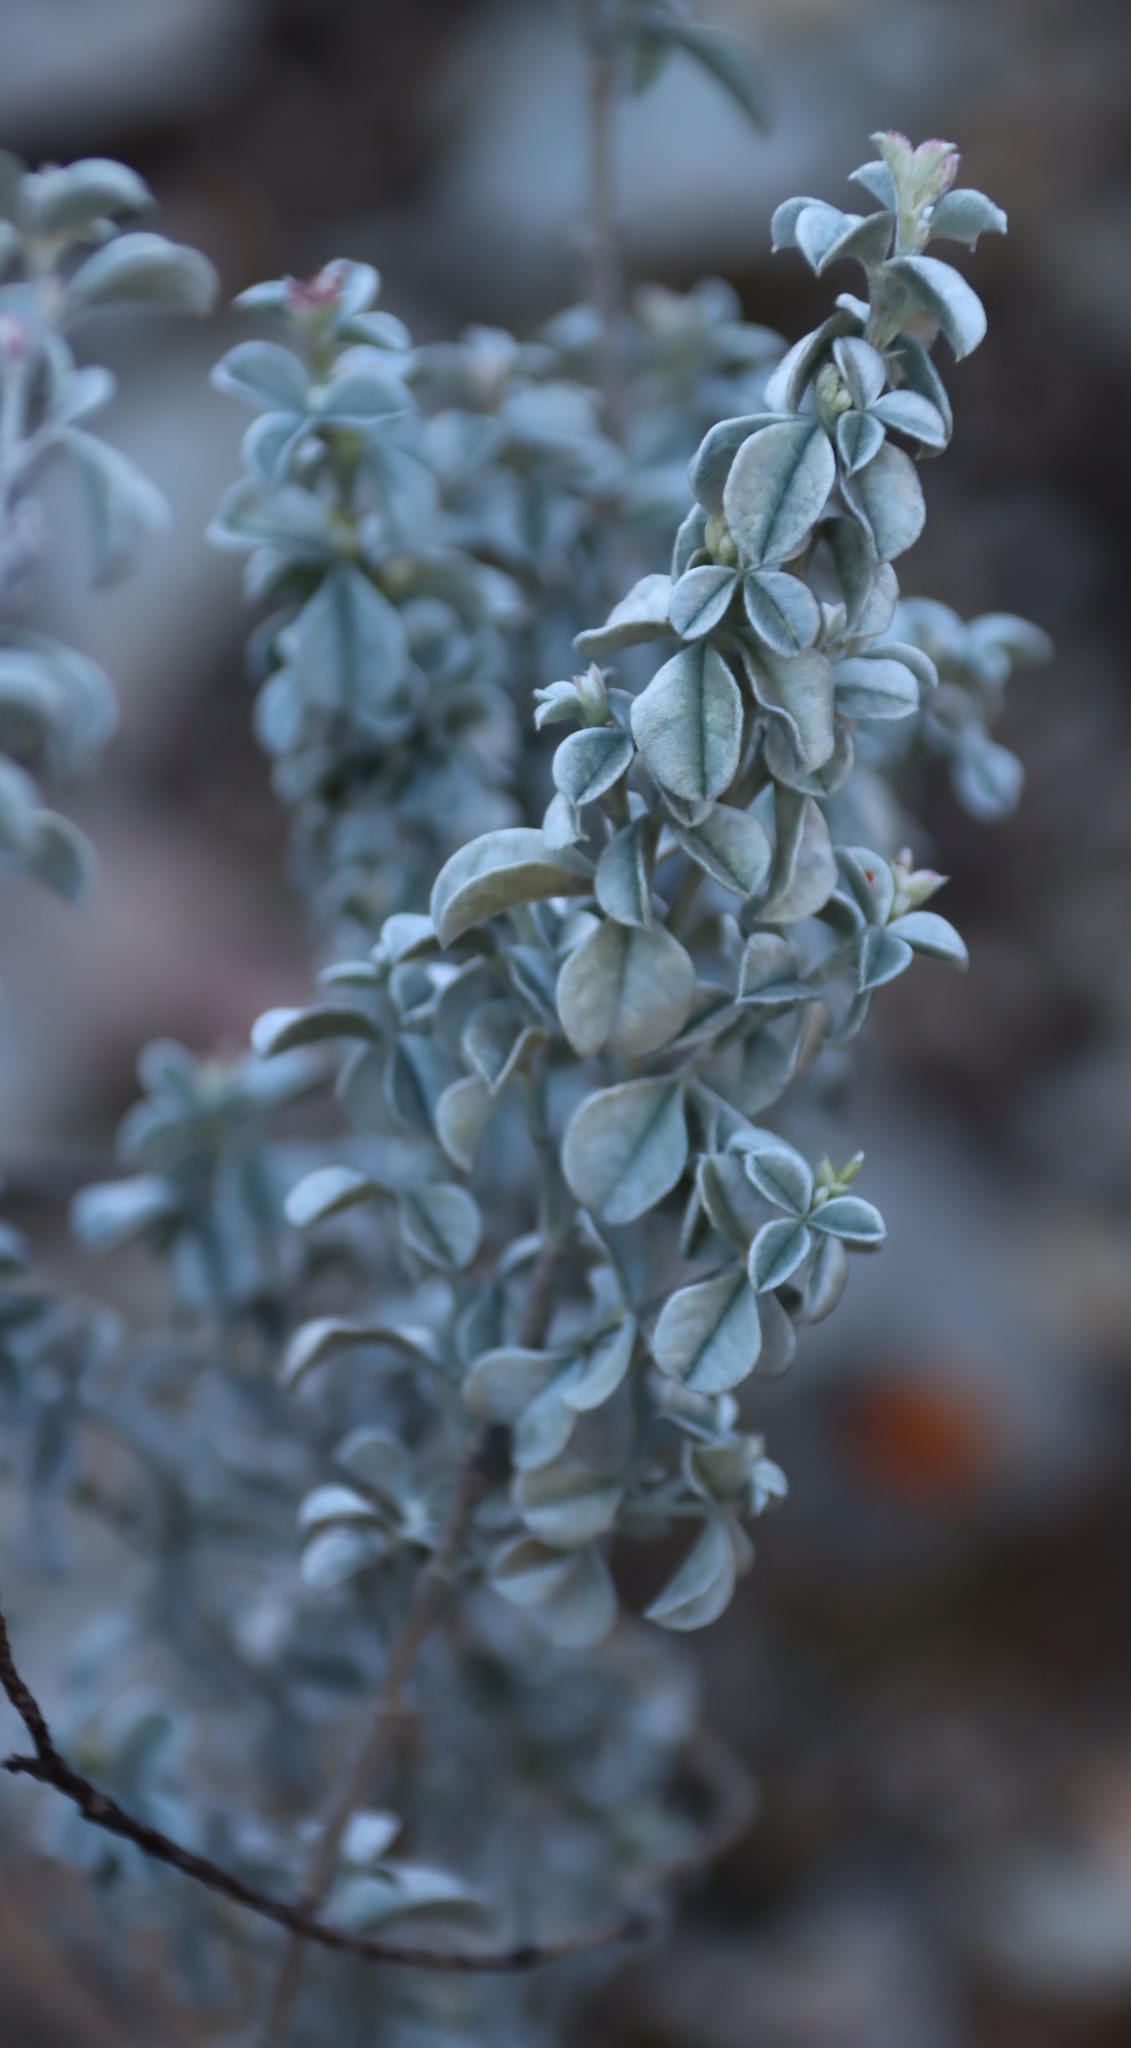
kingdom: Plantae
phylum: Tracheophyta
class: Magnoliopsida
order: Fabales
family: Fabaceae
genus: Argyrolobium
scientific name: Argyrolobium parviflorum
